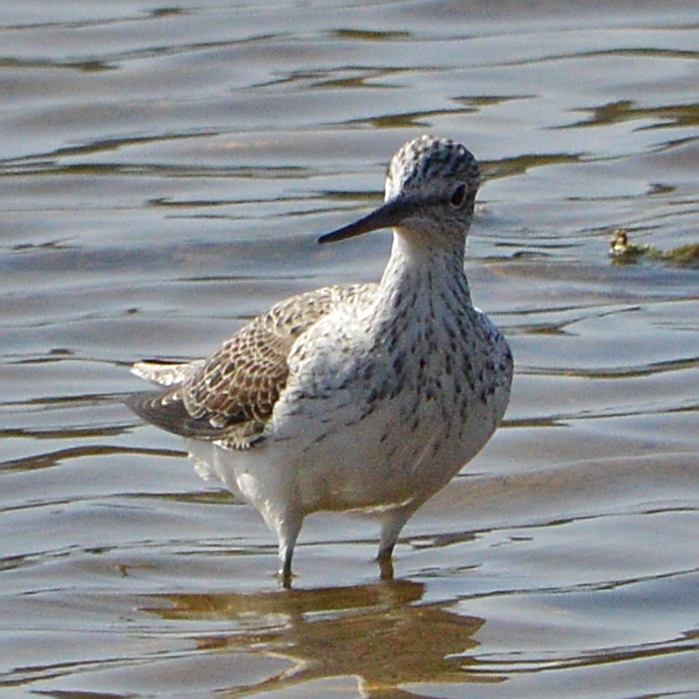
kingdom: Animalia
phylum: Chordata
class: Aves
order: Charadriiformes
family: Scolopacidae
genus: Tringa
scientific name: Tringa nebularia
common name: Common greenshank
